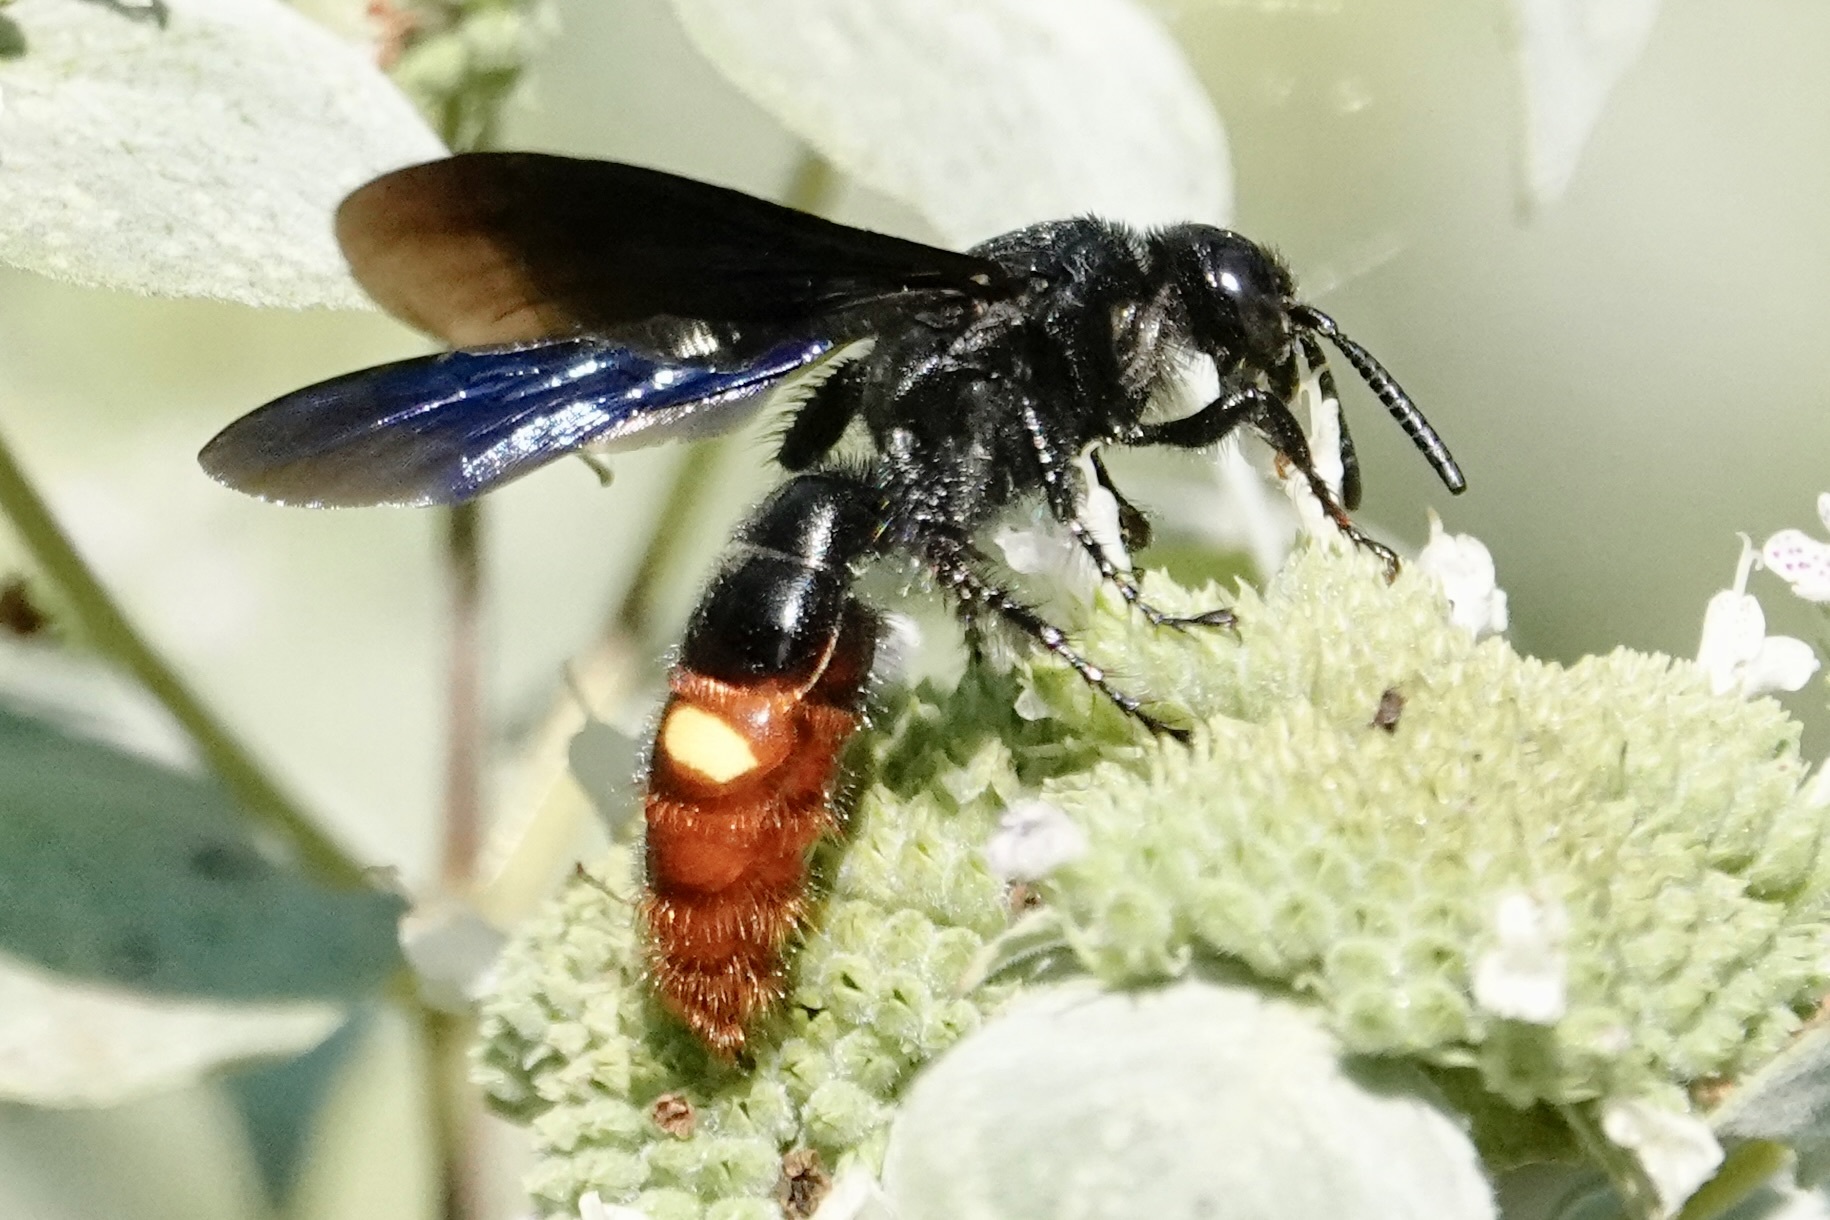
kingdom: Animalia
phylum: Arthropoda
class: Insecta
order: Hymenoptera
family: Scoliidae
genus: Scolia
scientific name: Scolia dubia
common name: Blue-winged scoliid wasp
